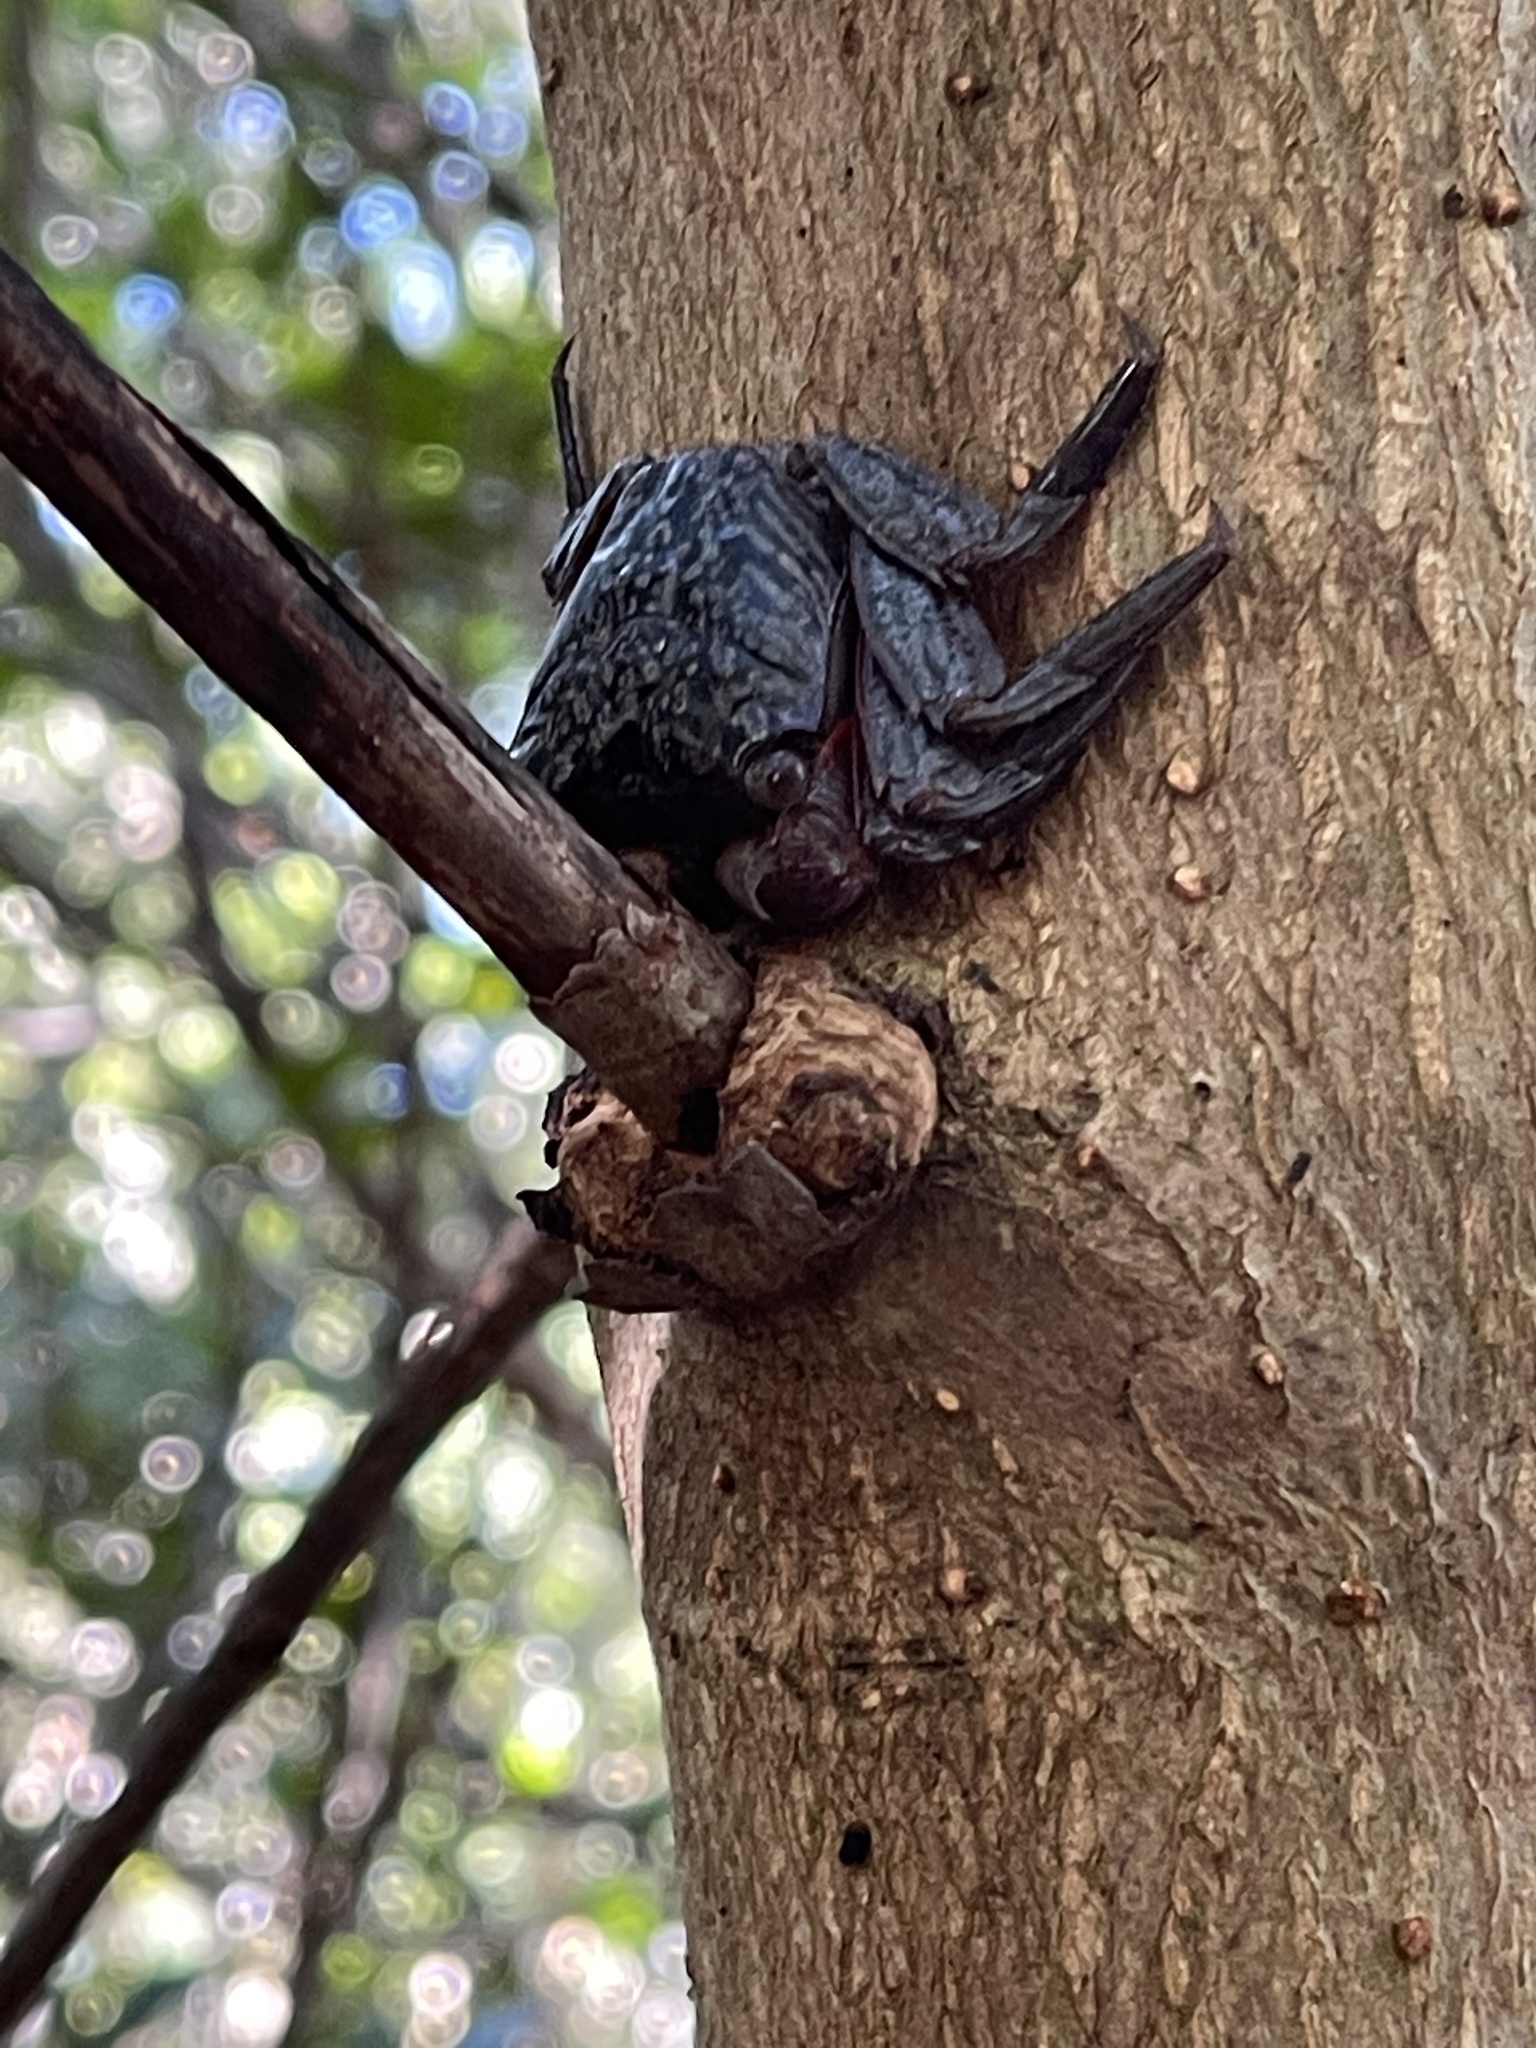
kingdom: Animalia
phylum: Arthropoda
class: Malacostraca
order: Decapoda
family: Sesarmidae
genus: Aratus
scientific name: Aratus pisonii
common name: Mangrove crab
